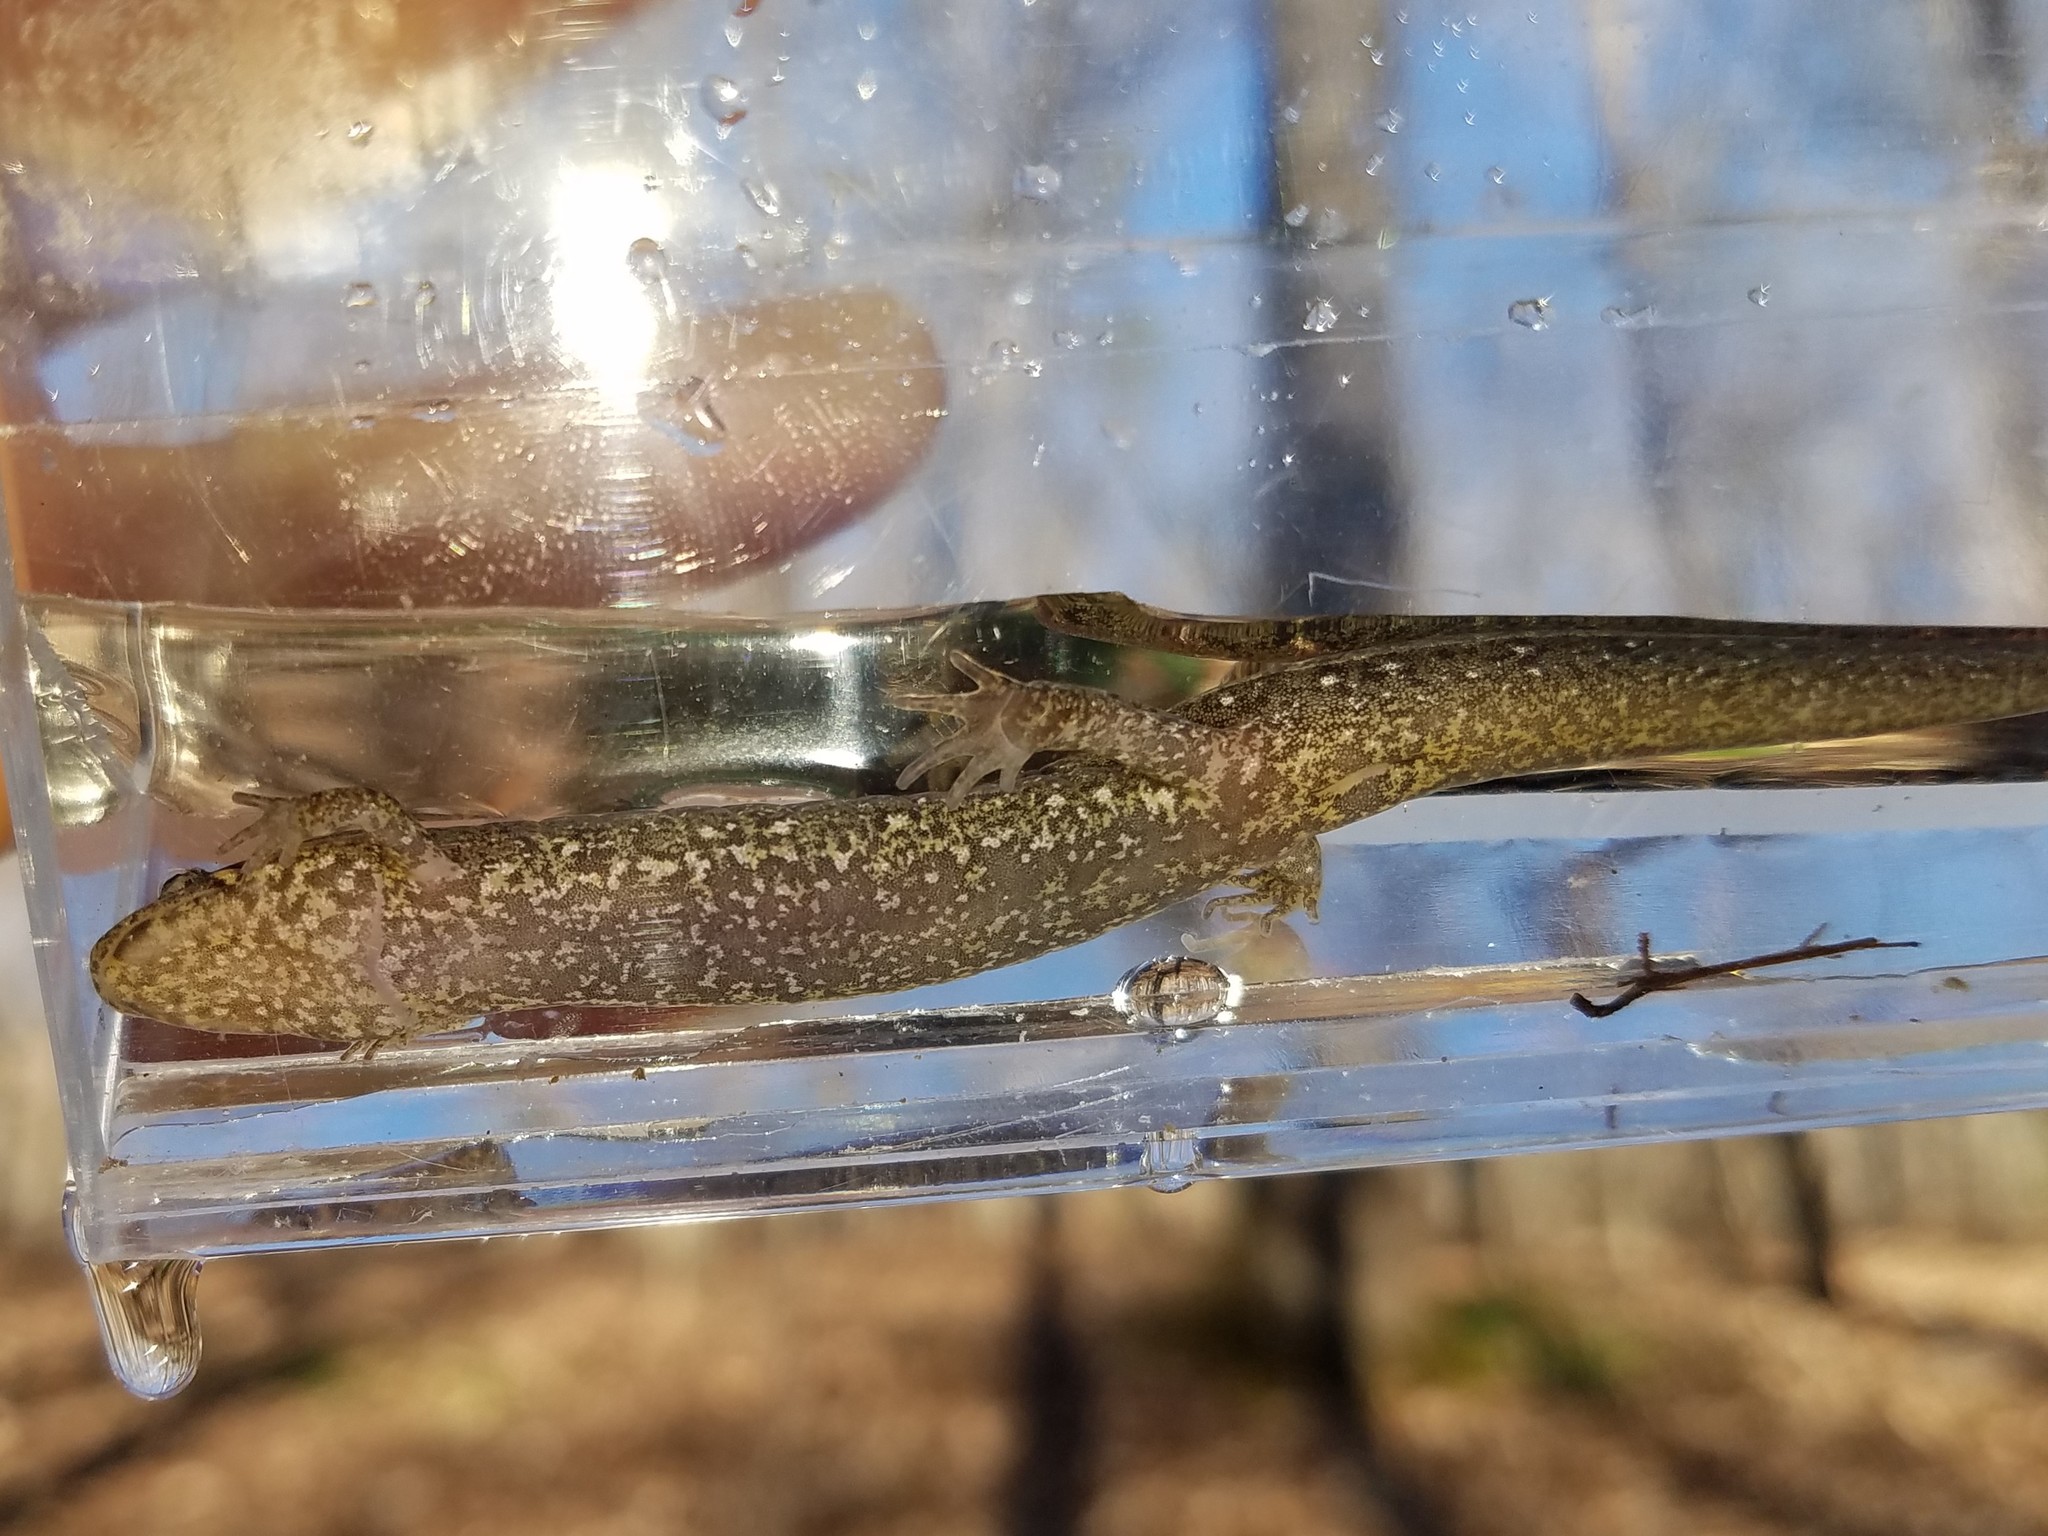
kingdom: Animalia
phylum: Chordata
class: Amphibia
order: Caudata
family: Plethodontidae
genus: Desmognathus
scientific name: Desmognathus
